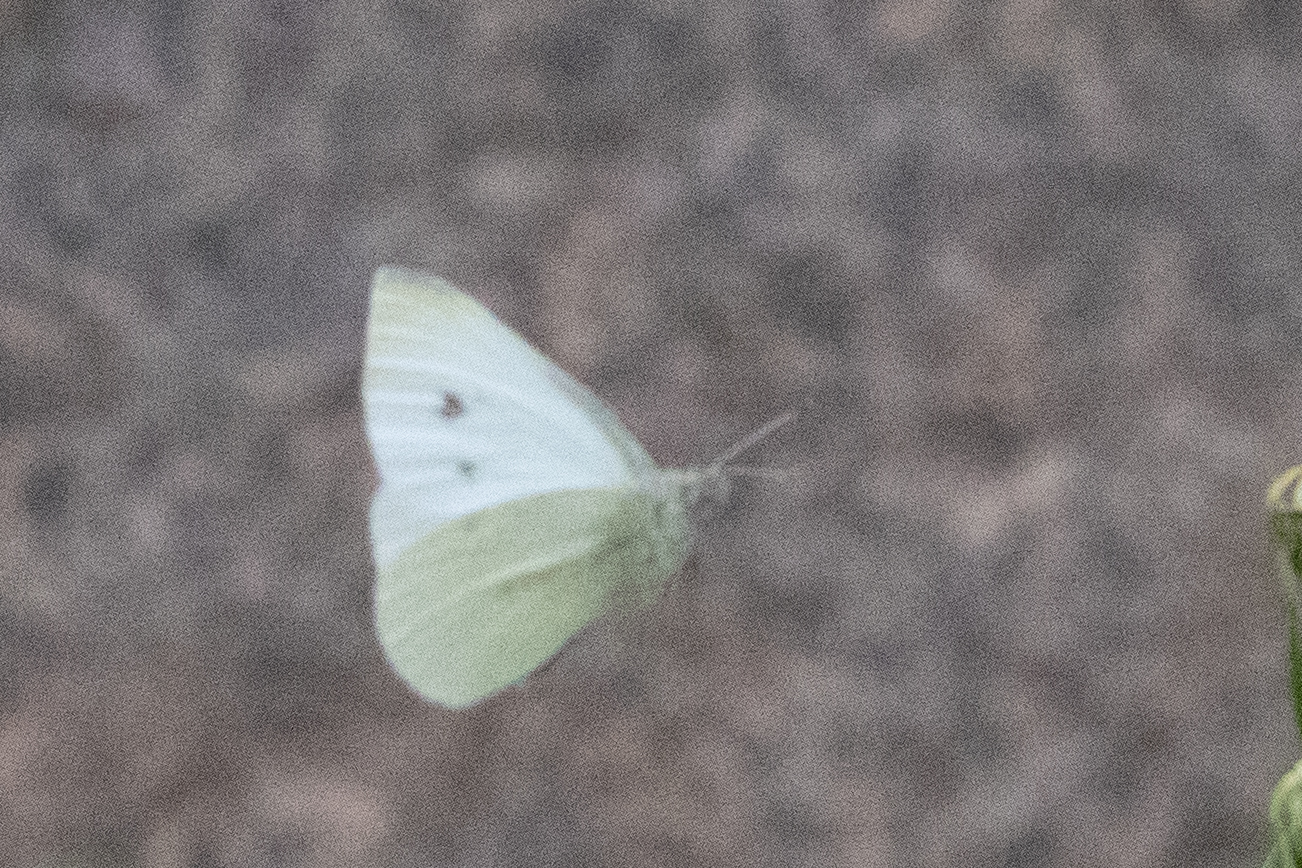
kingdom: Animalia
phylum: Arthropoda
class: Insecta
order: Lepidoptera
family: Pieridae
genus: Pieris
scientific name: Pieris rapae
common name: Small white
